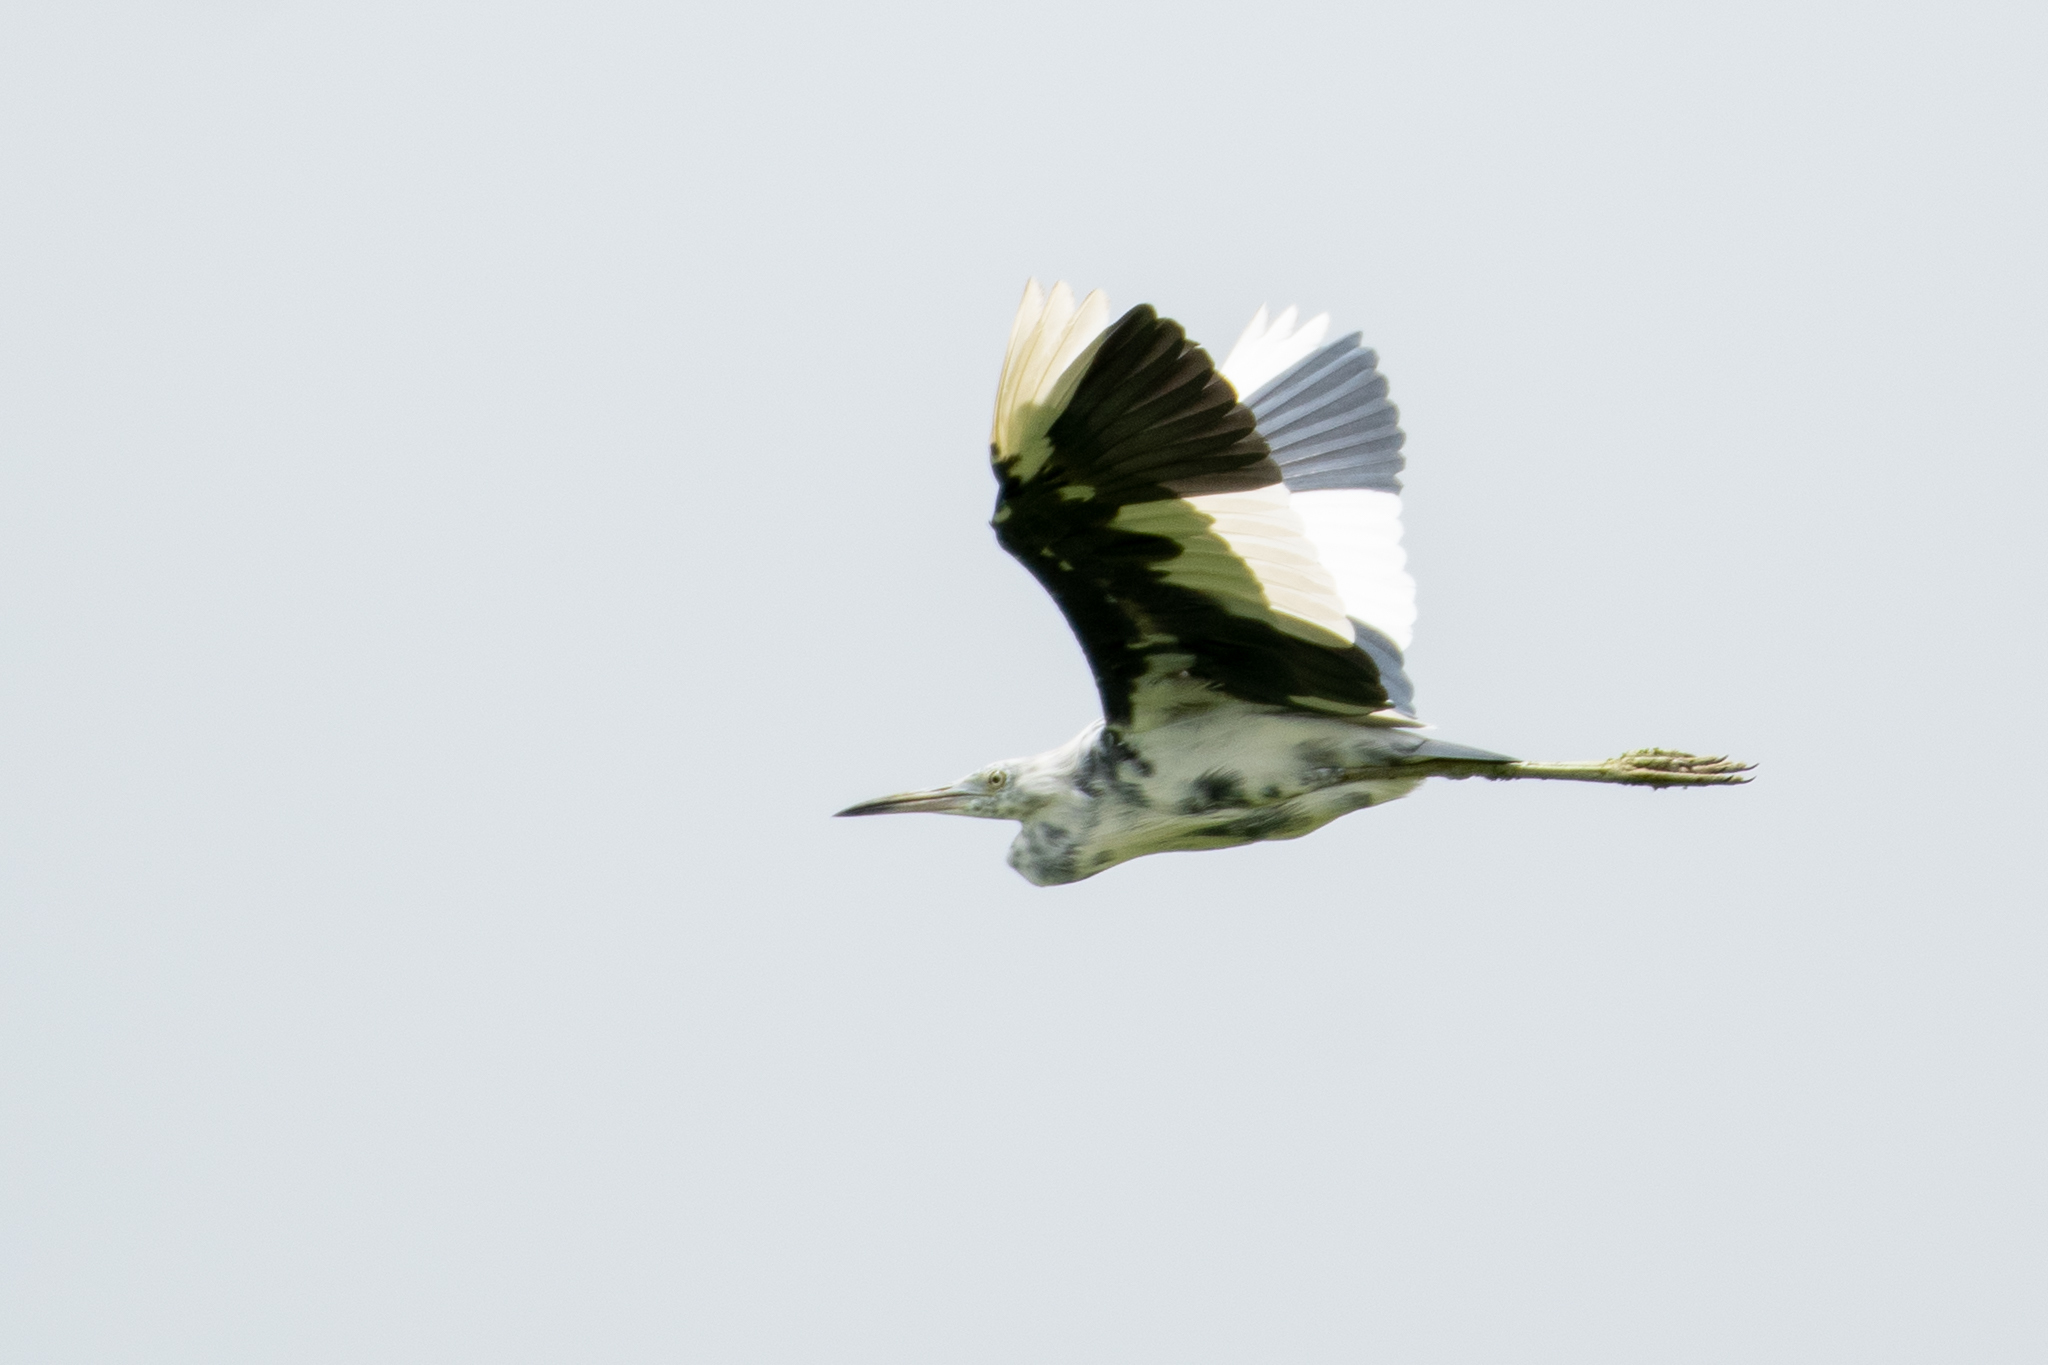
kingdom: Animalia
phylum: Chordata
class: Aves
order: Pelecaniformes
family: Ardeidae
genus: Egretta
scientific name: Egretta caerulea
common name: Little blue heron
